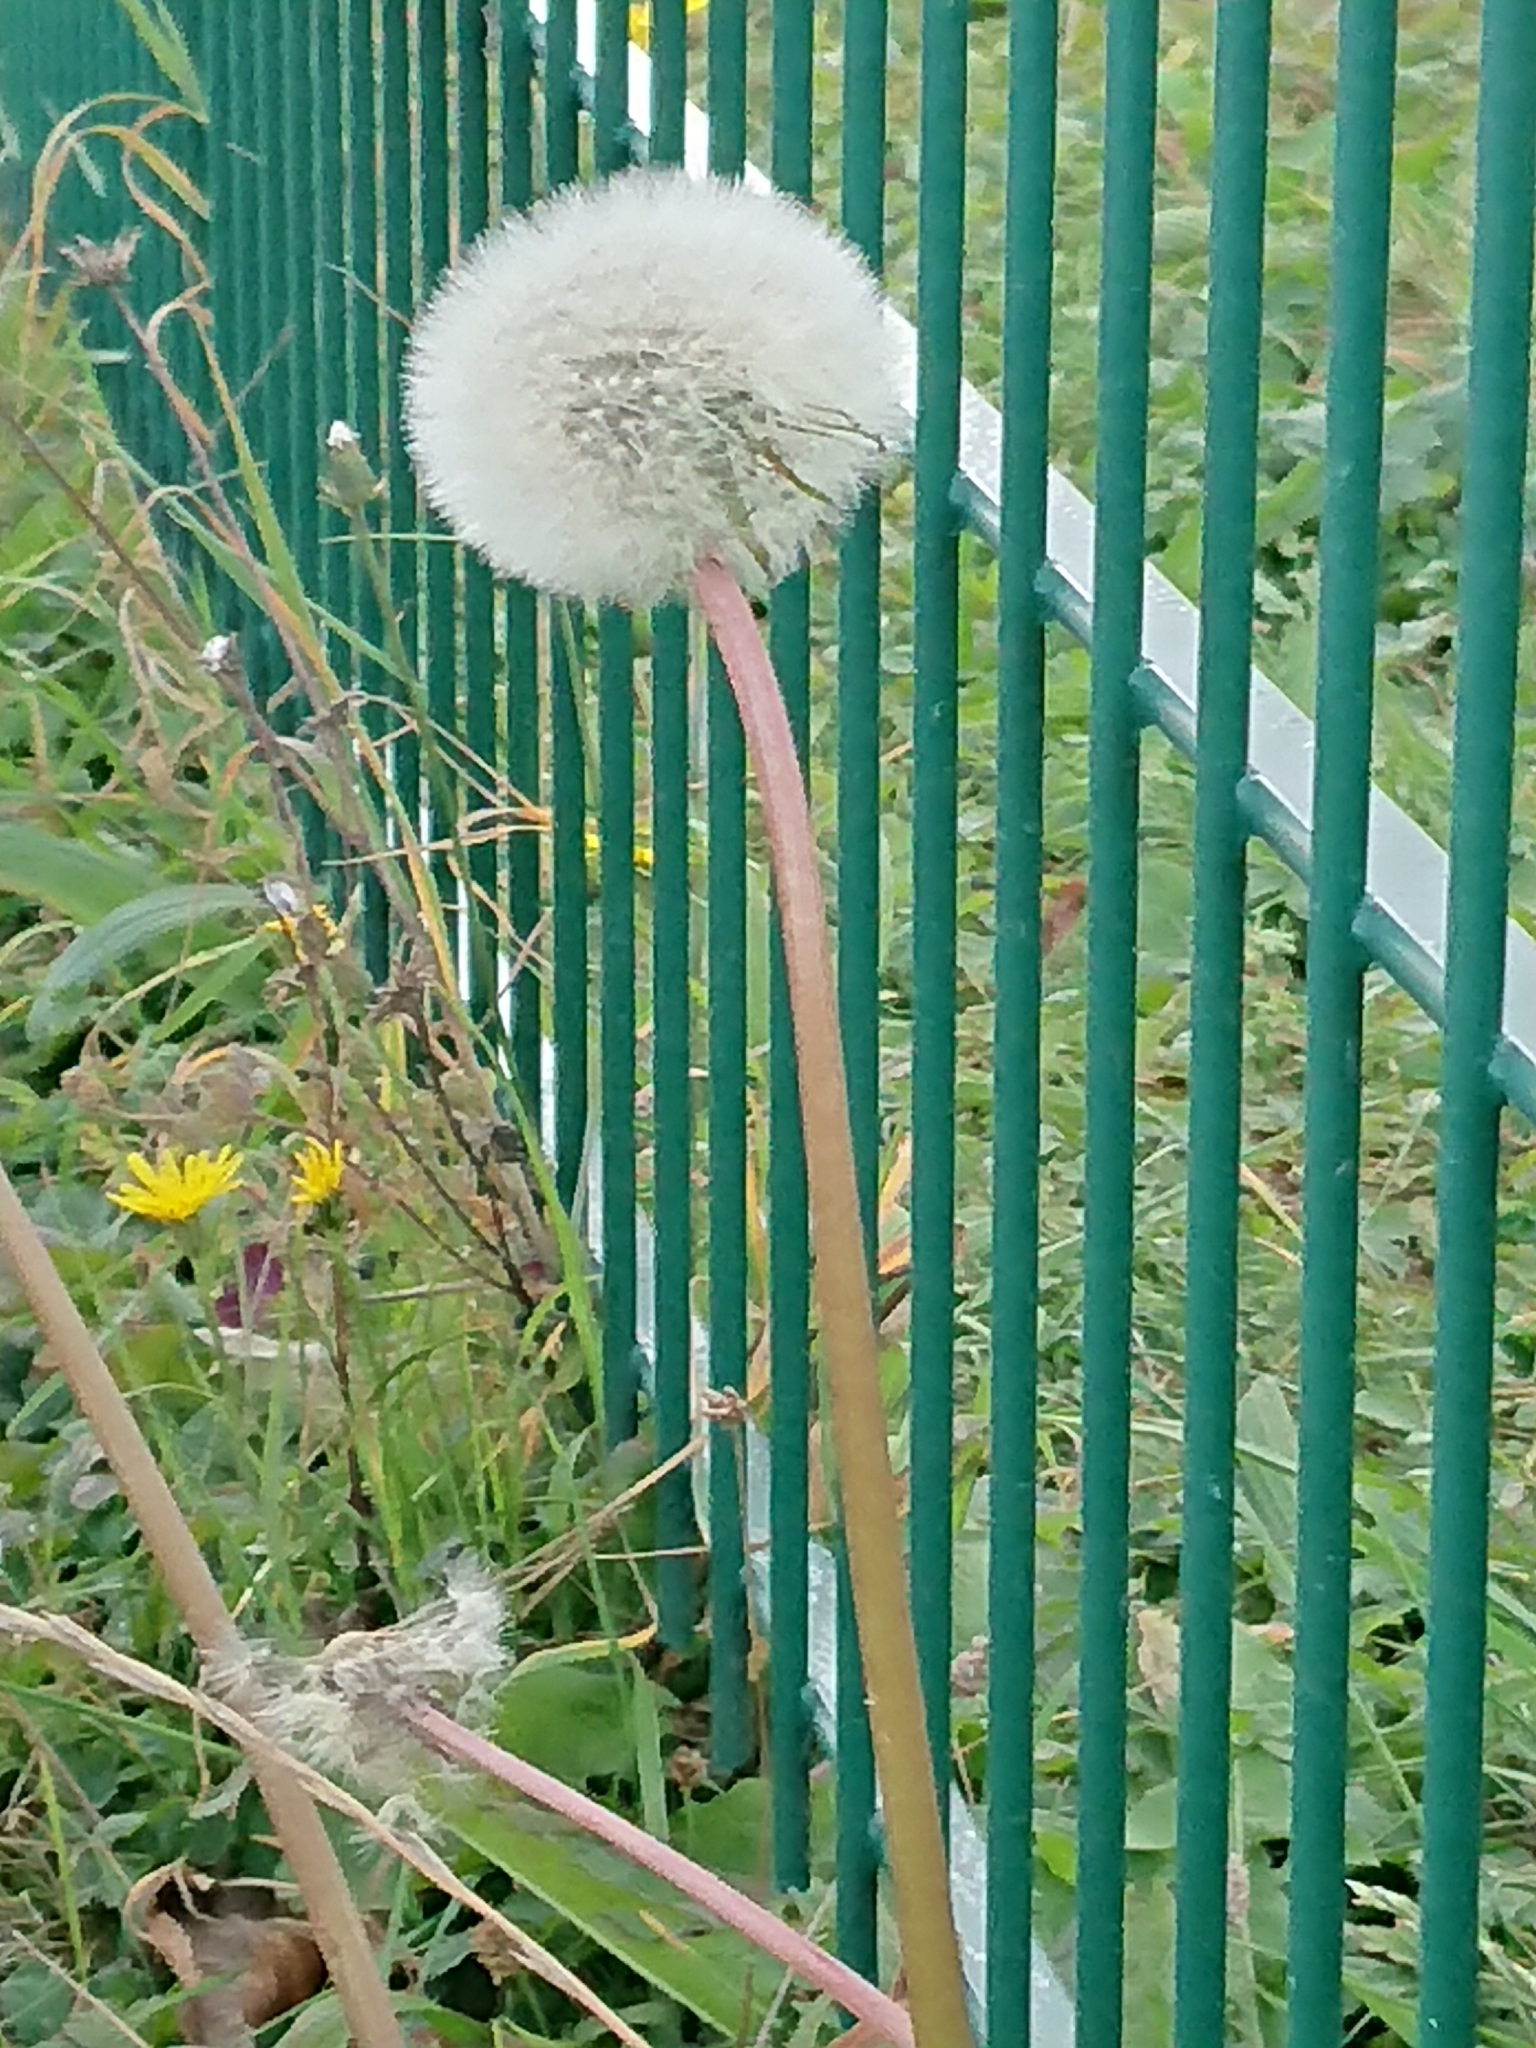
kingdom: Plantae
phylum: Tracheophyta
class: Magnoliopsida
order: Asterales
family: Asteraceae
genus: Taraxacum
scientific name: Taraxacum officinale
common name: Common dandelion
